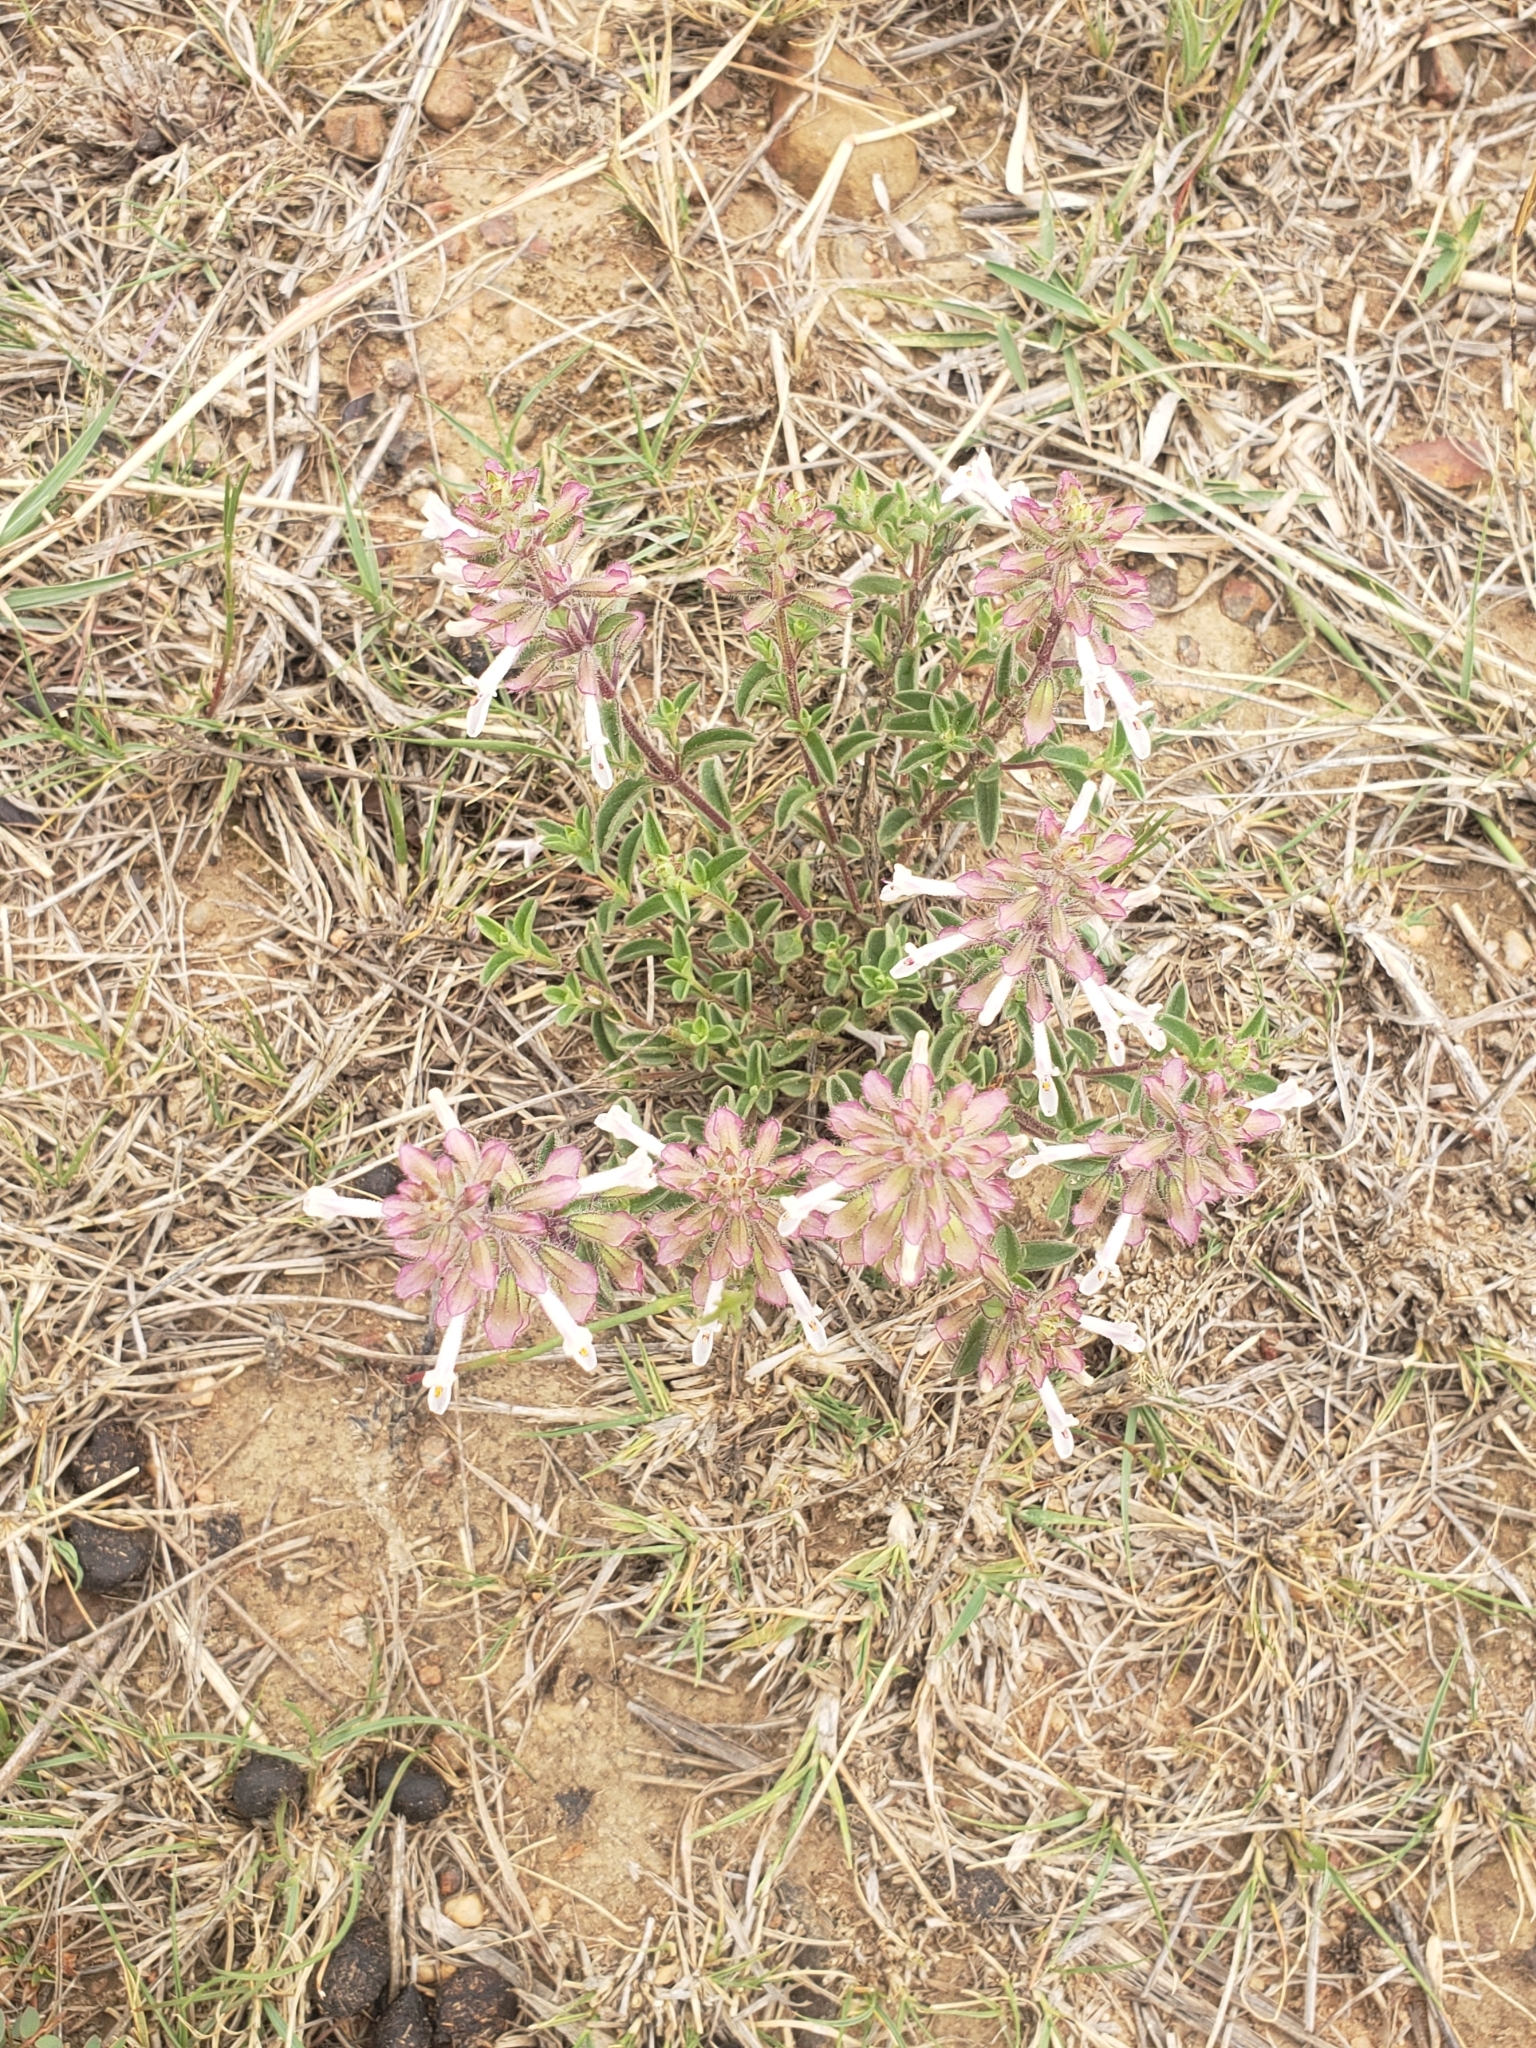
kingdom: Plantae
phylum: Tracheophyta
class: Magnoliopsida
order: Lamiales
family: Lamiaceae
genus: Syncolostemon
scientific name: Syncolostemon pretoriae
